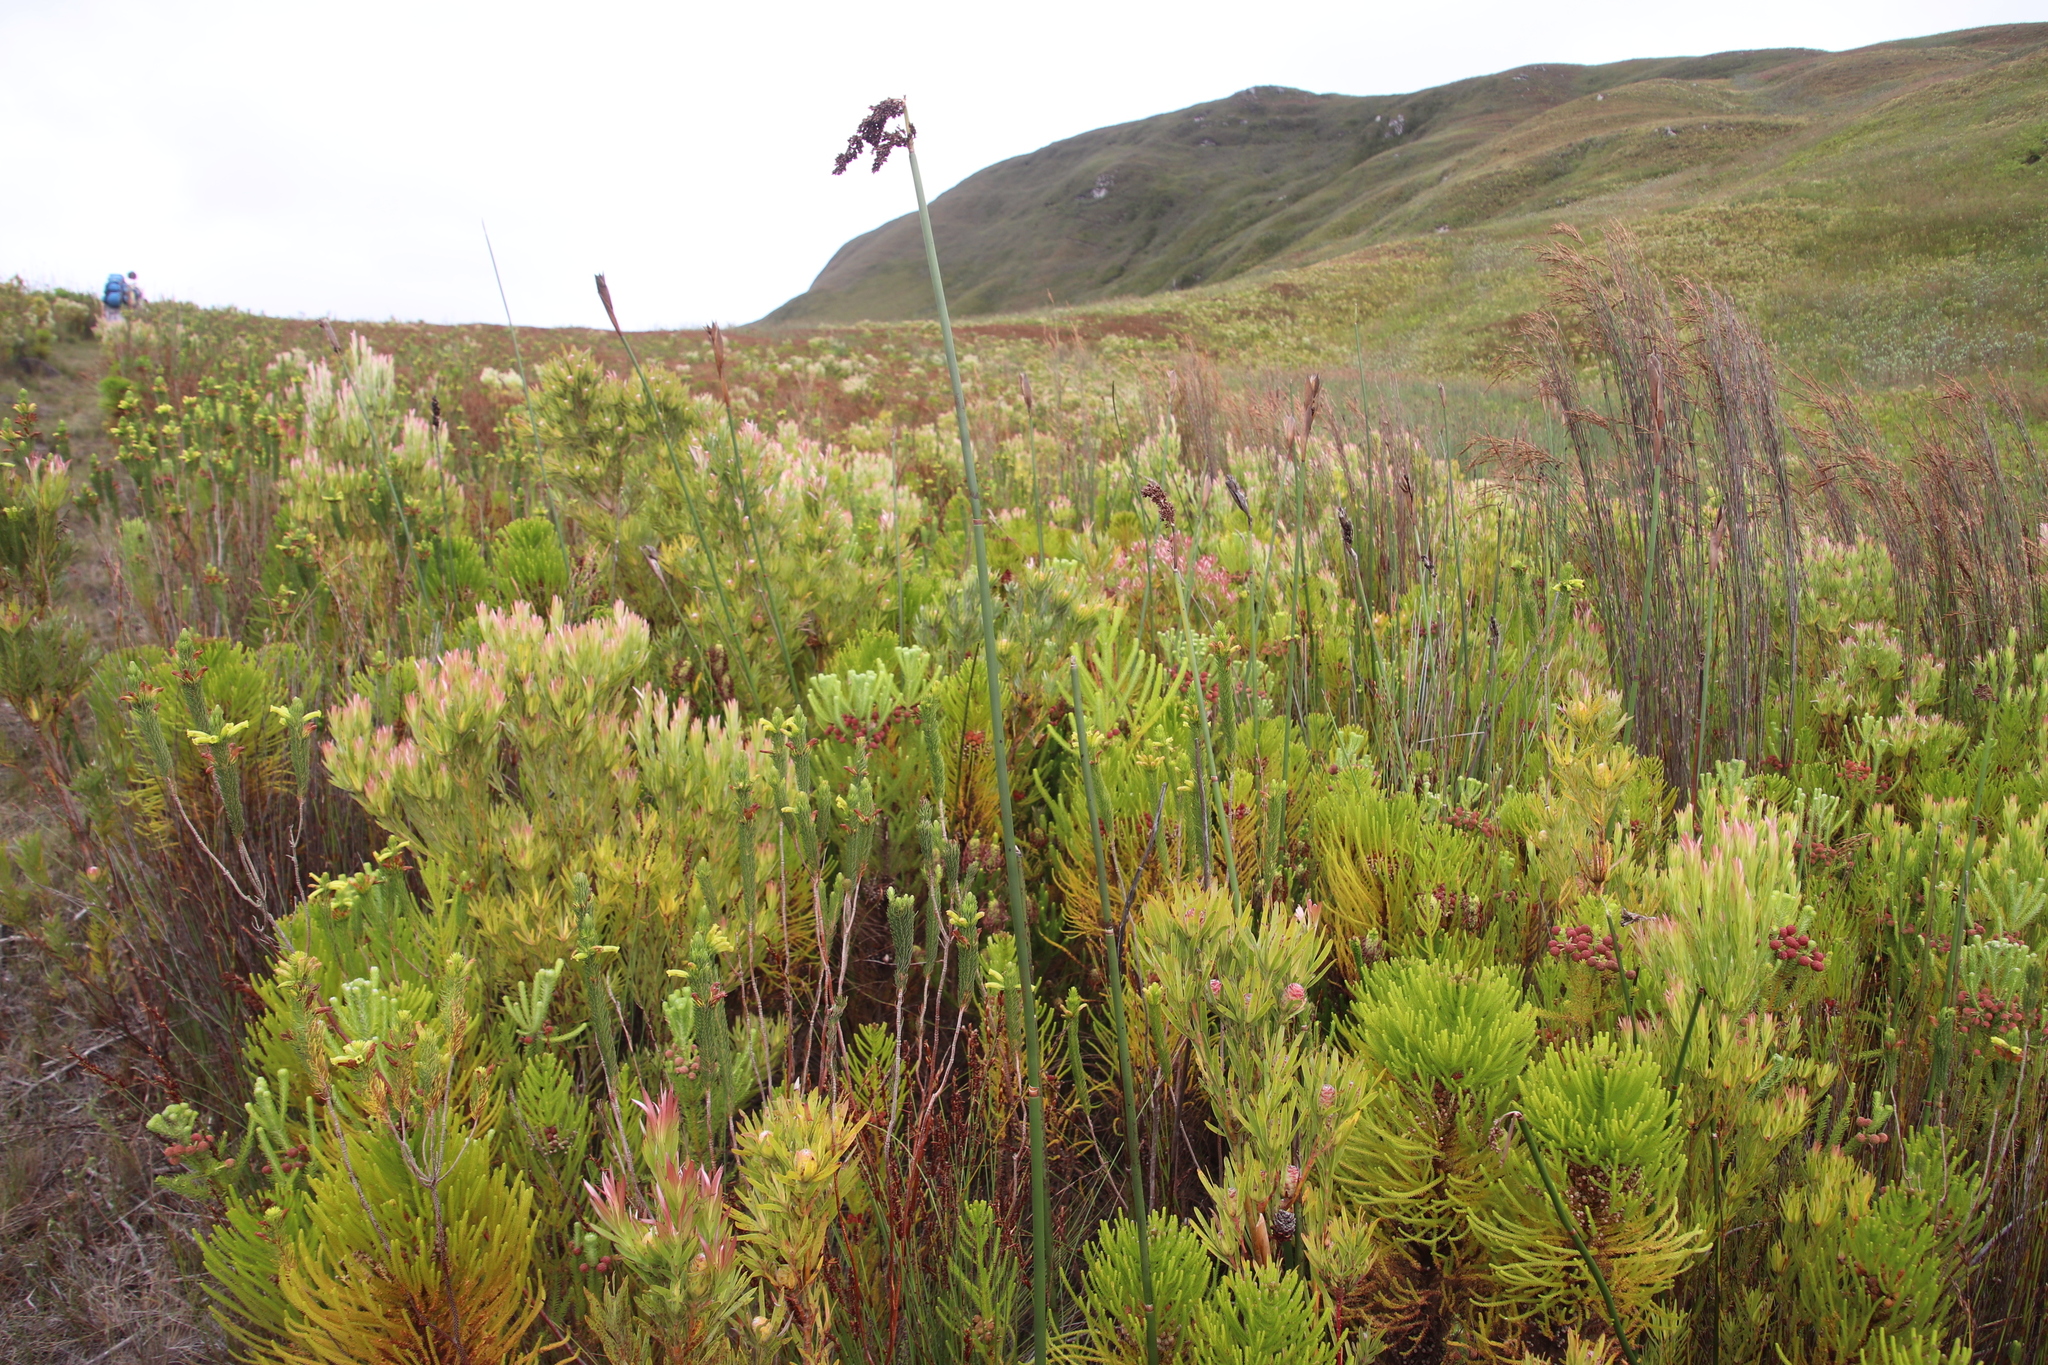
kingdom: Plantae
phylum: Tracheophyta
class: Liliopsida
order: Poales
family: Restionaceae
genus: Elegia
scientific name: Elegia mucronata
